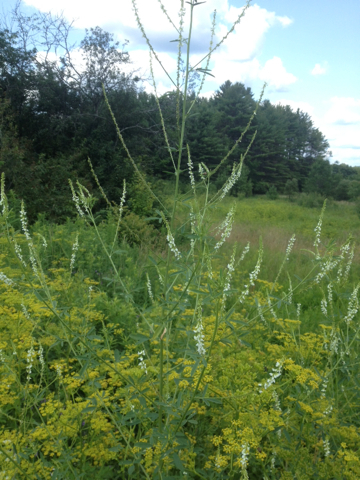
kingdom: Plantae
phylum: Tracheophyta
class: Magnoliopsida
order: Fabales
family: Fabaceae
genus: Melilotus
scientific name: Melilotus albus
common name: White melilot
